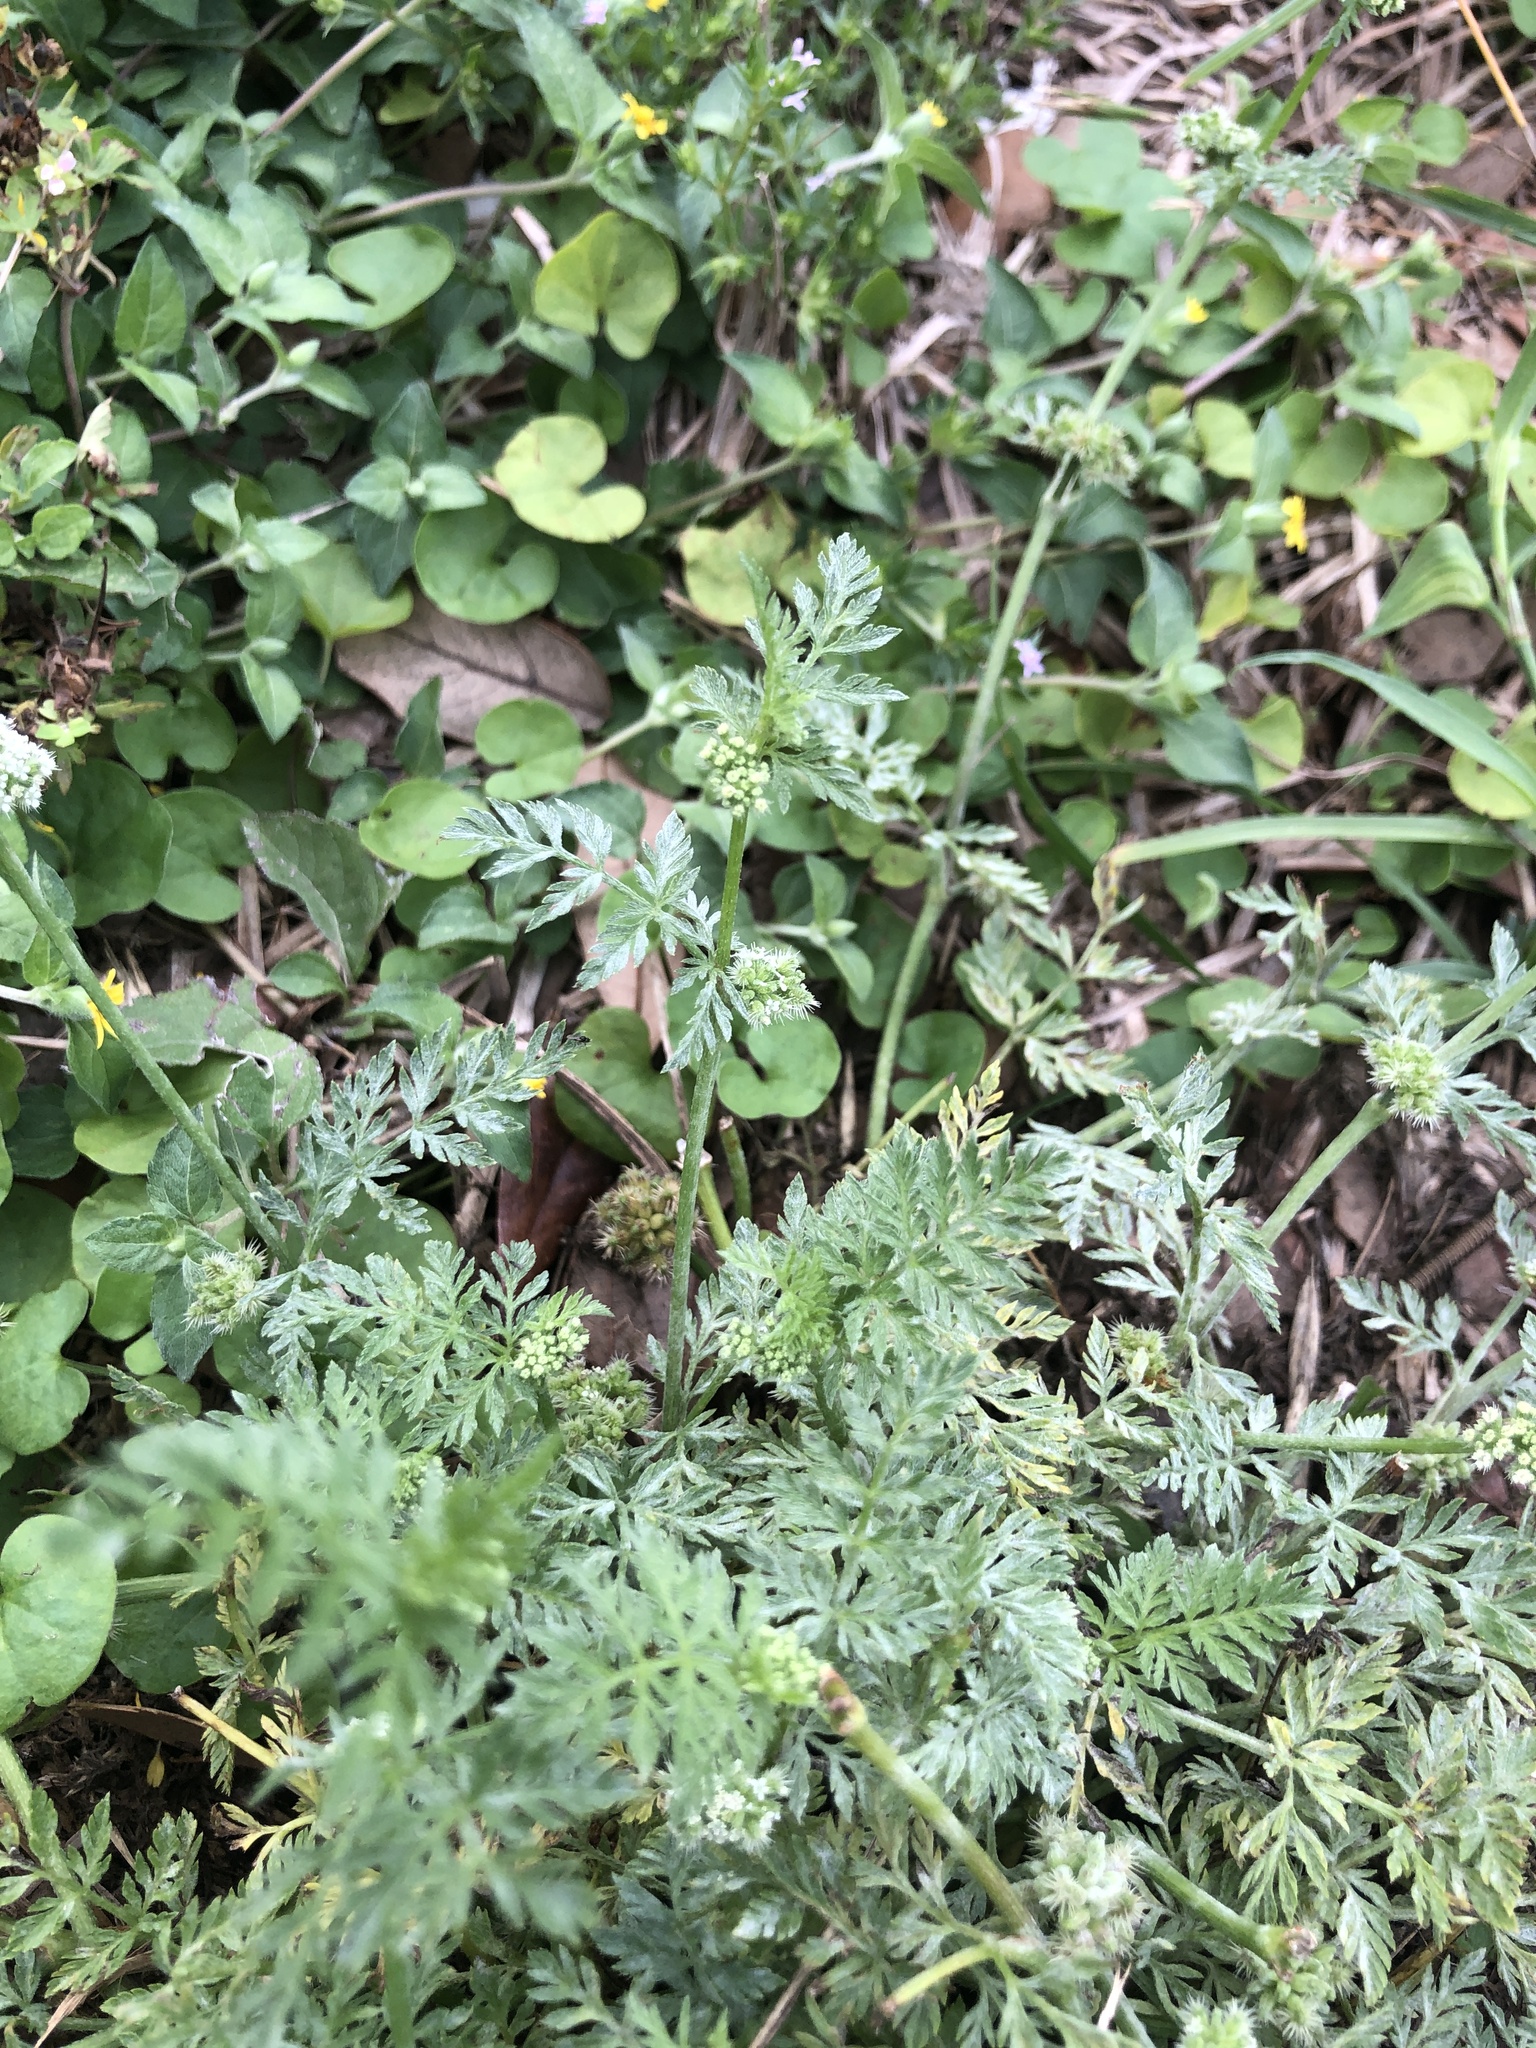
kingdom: Plantae
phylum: Tracheophyta
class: Magnoliopsida
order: Apiales
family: Apiaceae
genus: Torilis
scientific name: Torilis nodosa
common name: Knotted hedge-parsley
